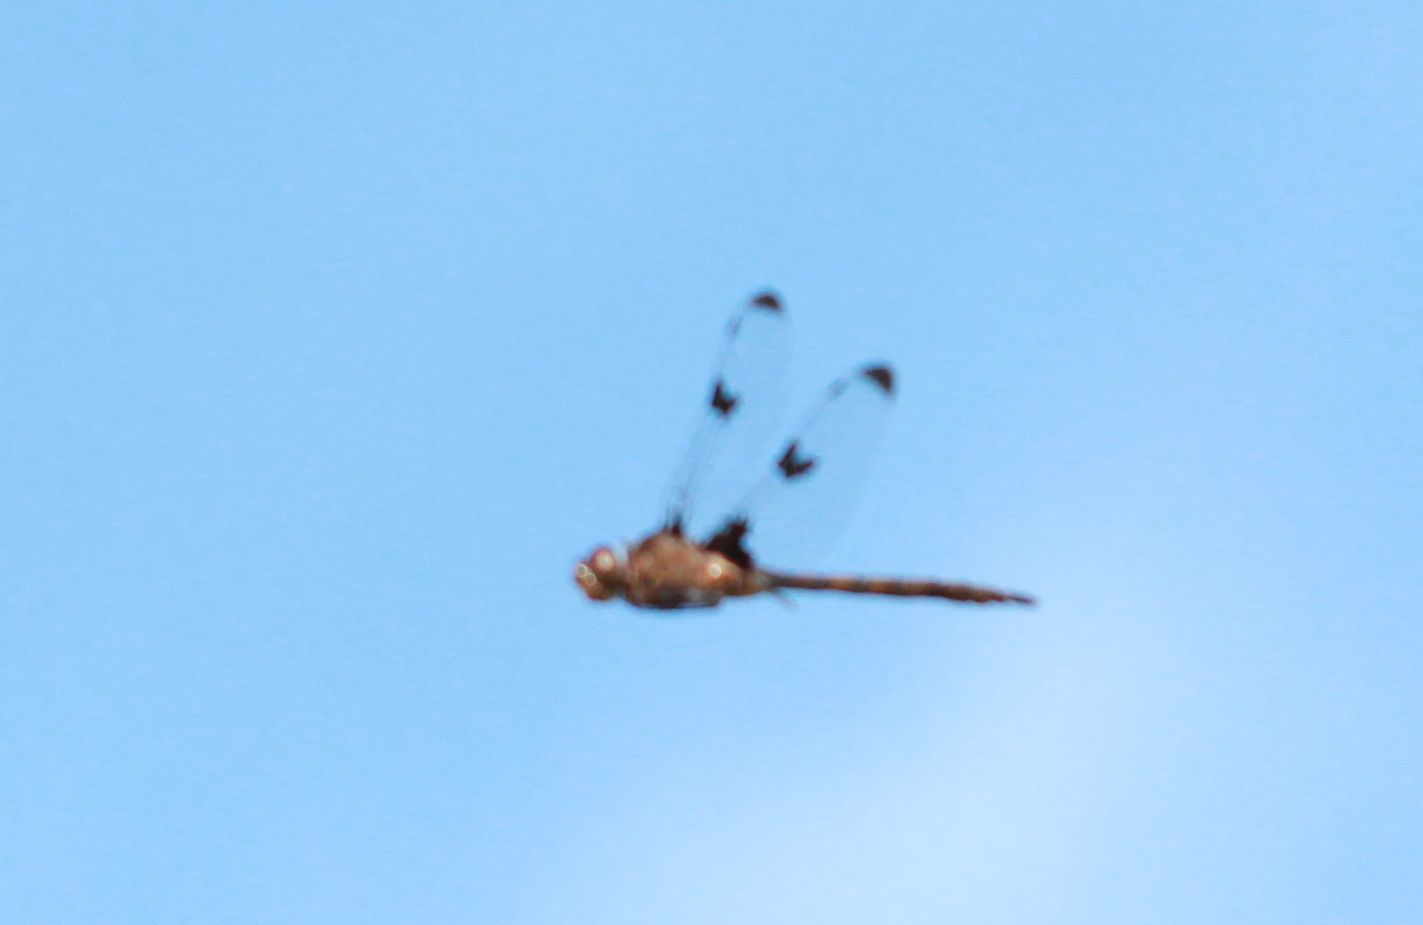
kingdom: Animalia
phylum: Arthropoda
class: Insecta
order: Odonata
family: Corduliidae
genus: Epitheca
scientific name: Epitheca princeps
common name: Prince baskettail
